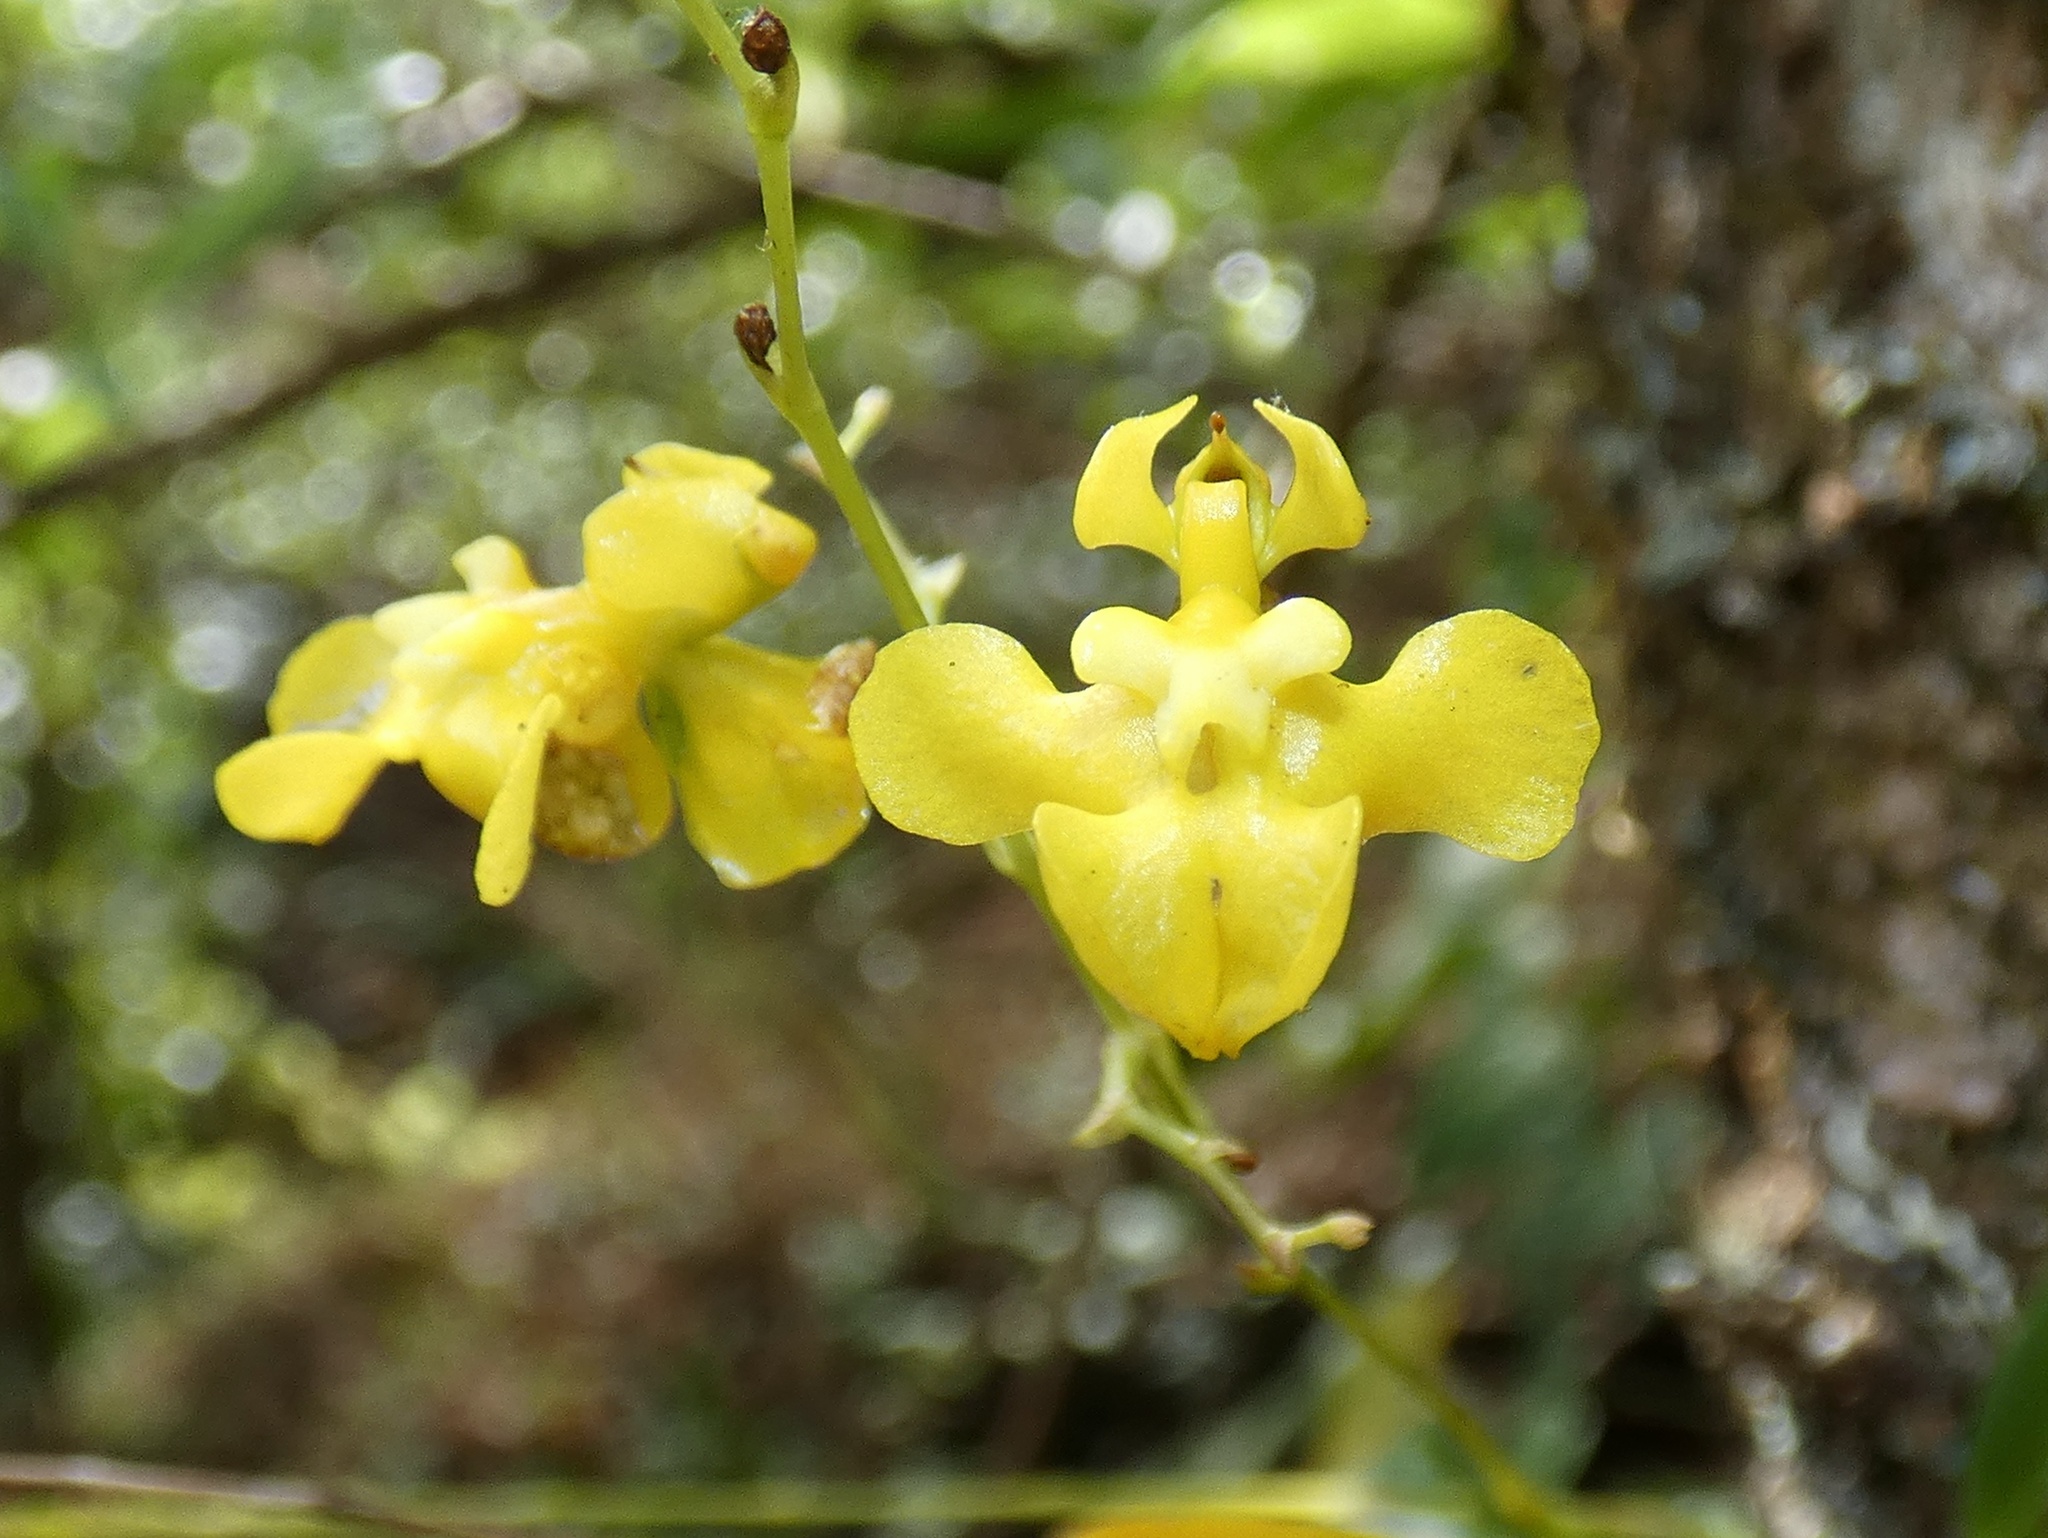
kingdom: Plantae
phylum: Tracheophyta
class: Liliopsida
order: Asparagales
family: Orchidaceae
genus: Oncidium
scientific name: Oncidium cheirophorum
